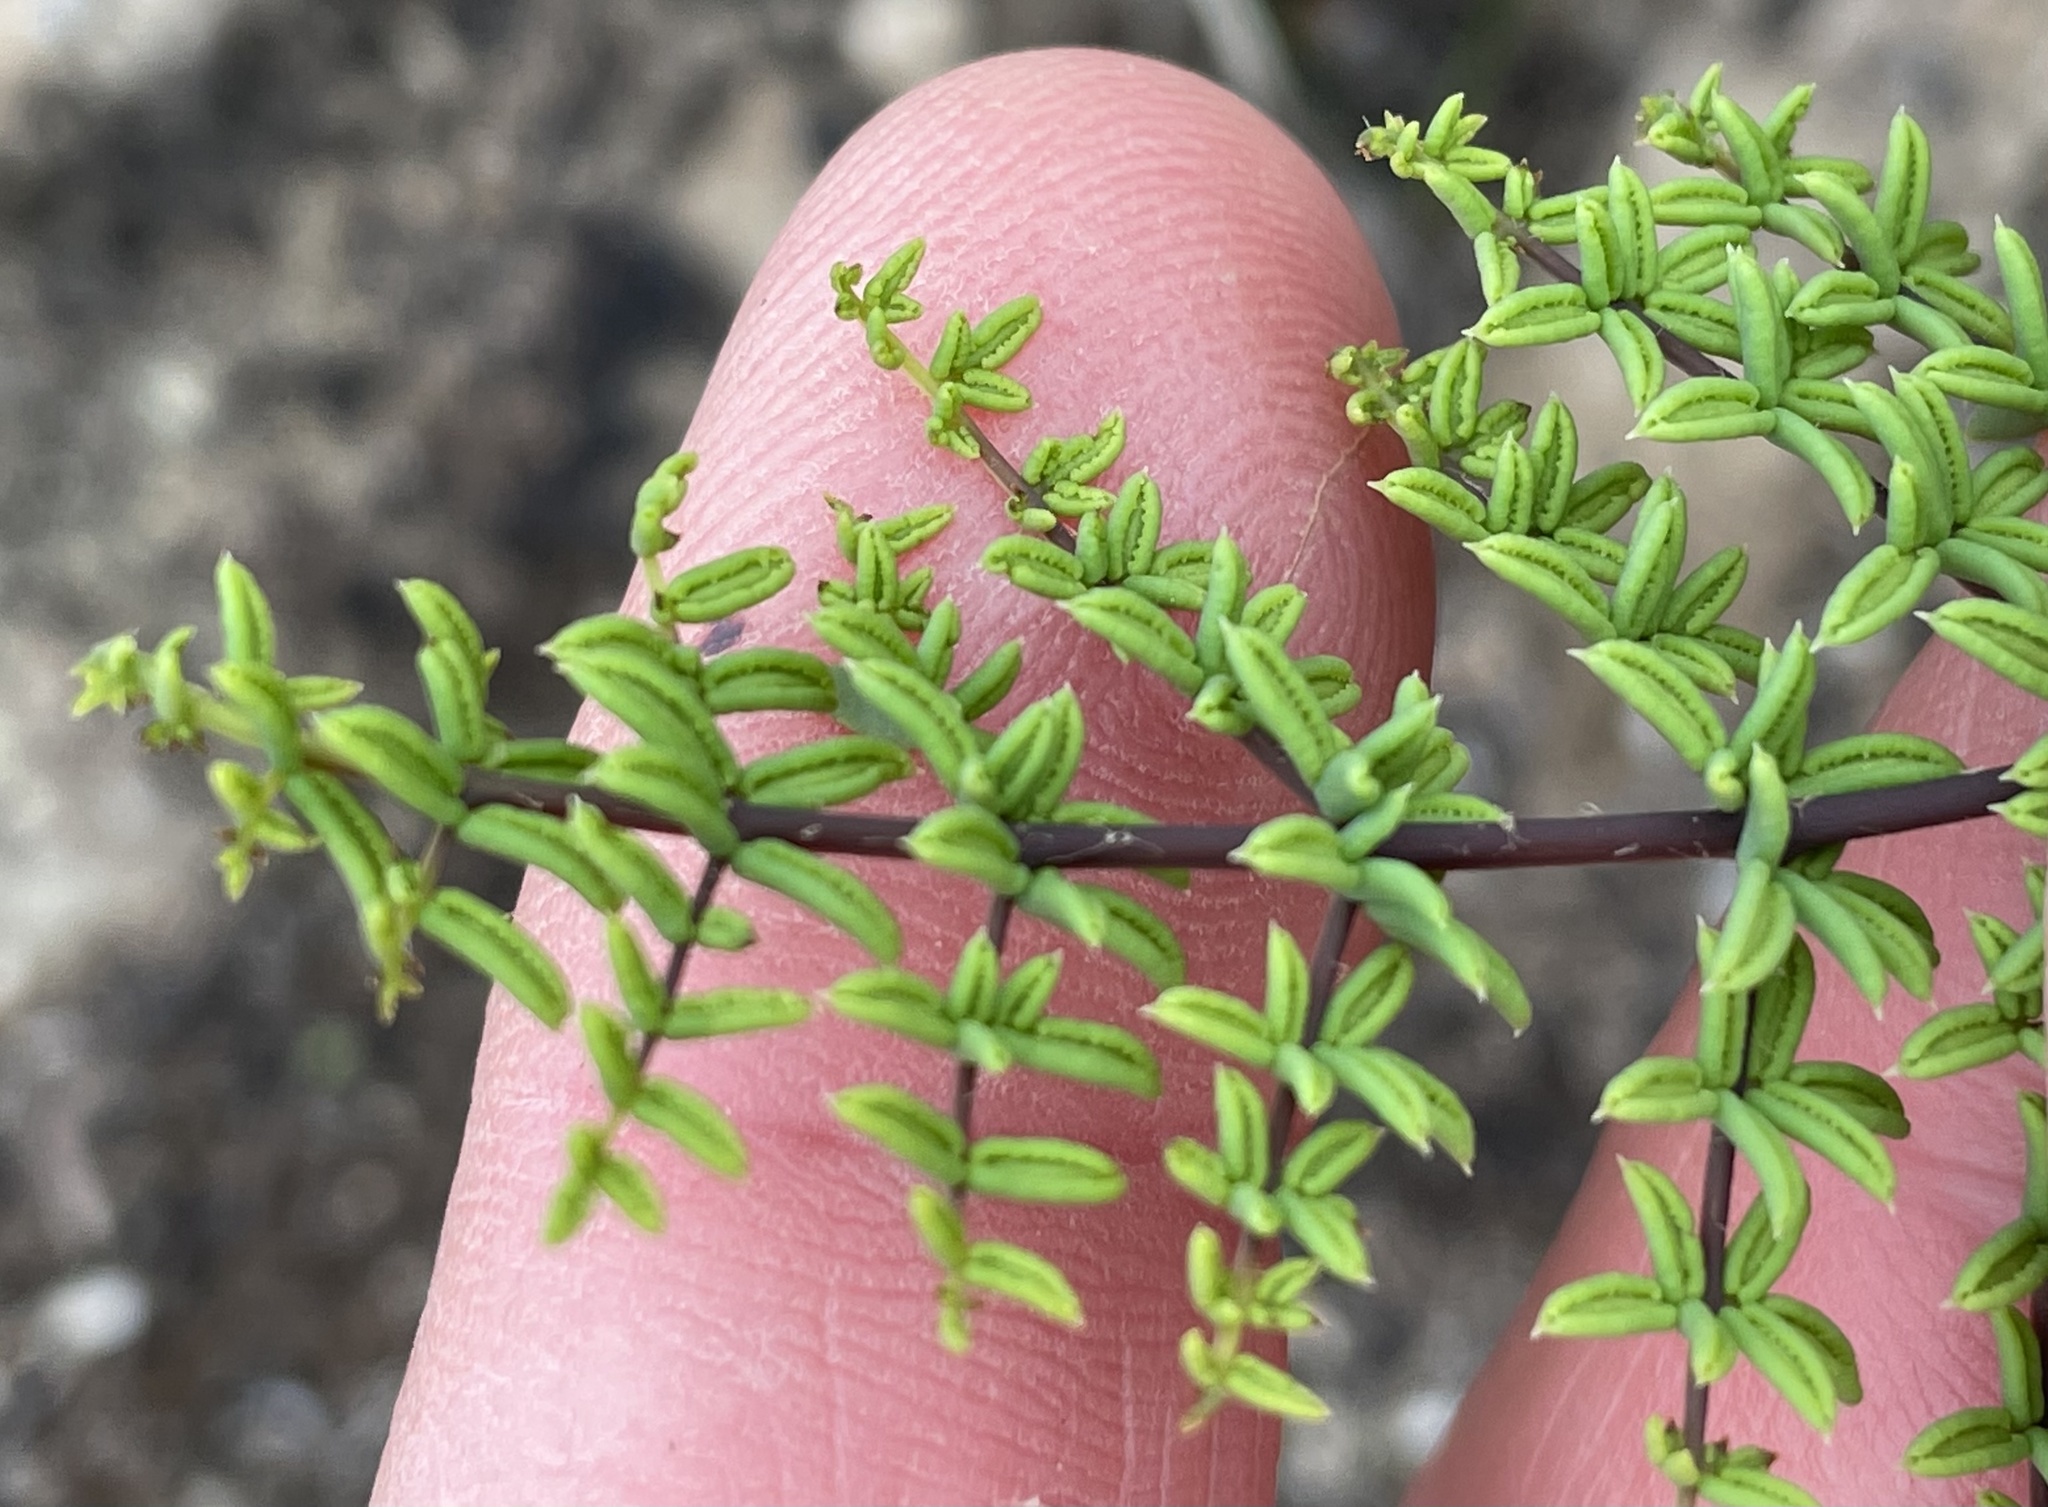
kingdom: Plantae
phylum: Tracheophyta
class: Polypodiopsida
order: Polypodiales
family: Pteridaceae
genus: Pellaea
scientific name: Pellaea mucronata
